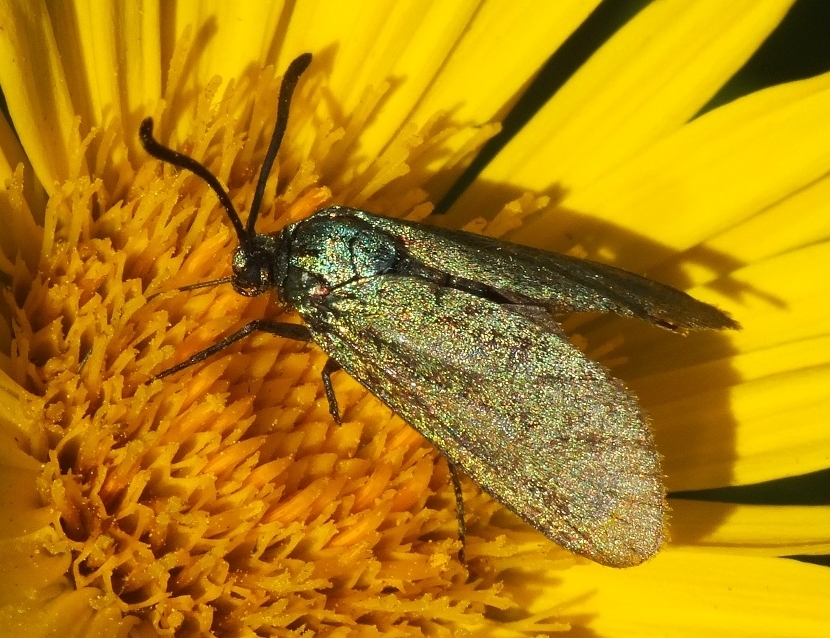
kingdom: Animalia
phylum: Arthropoda
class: Insecta
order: Lepidoptera
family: Zygaenidae
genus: Adscita
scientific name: Adscita geryon
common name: Cistus forester
